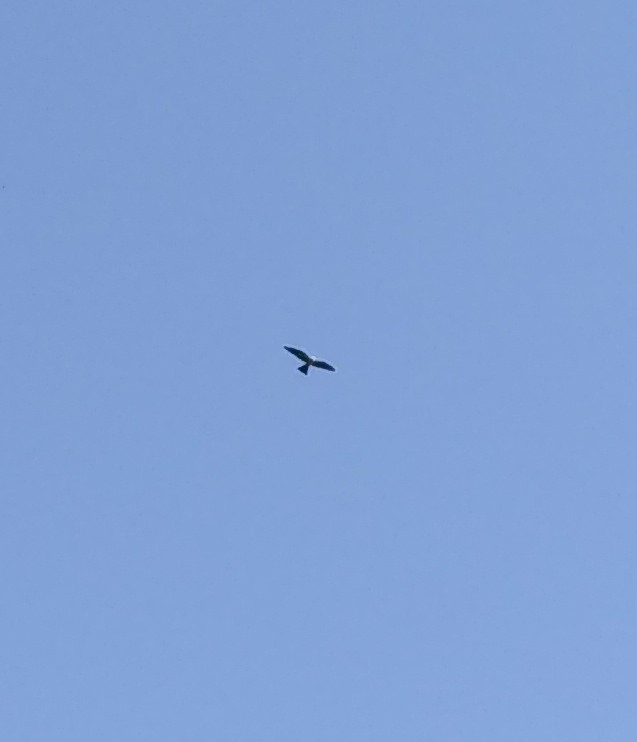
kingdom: Animalia
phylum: Chordata
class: Aves
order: Accipitriformes
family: Accipitridae
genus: Ictinia
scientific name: Ictinia mississippiensis
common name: Mississippi kite
